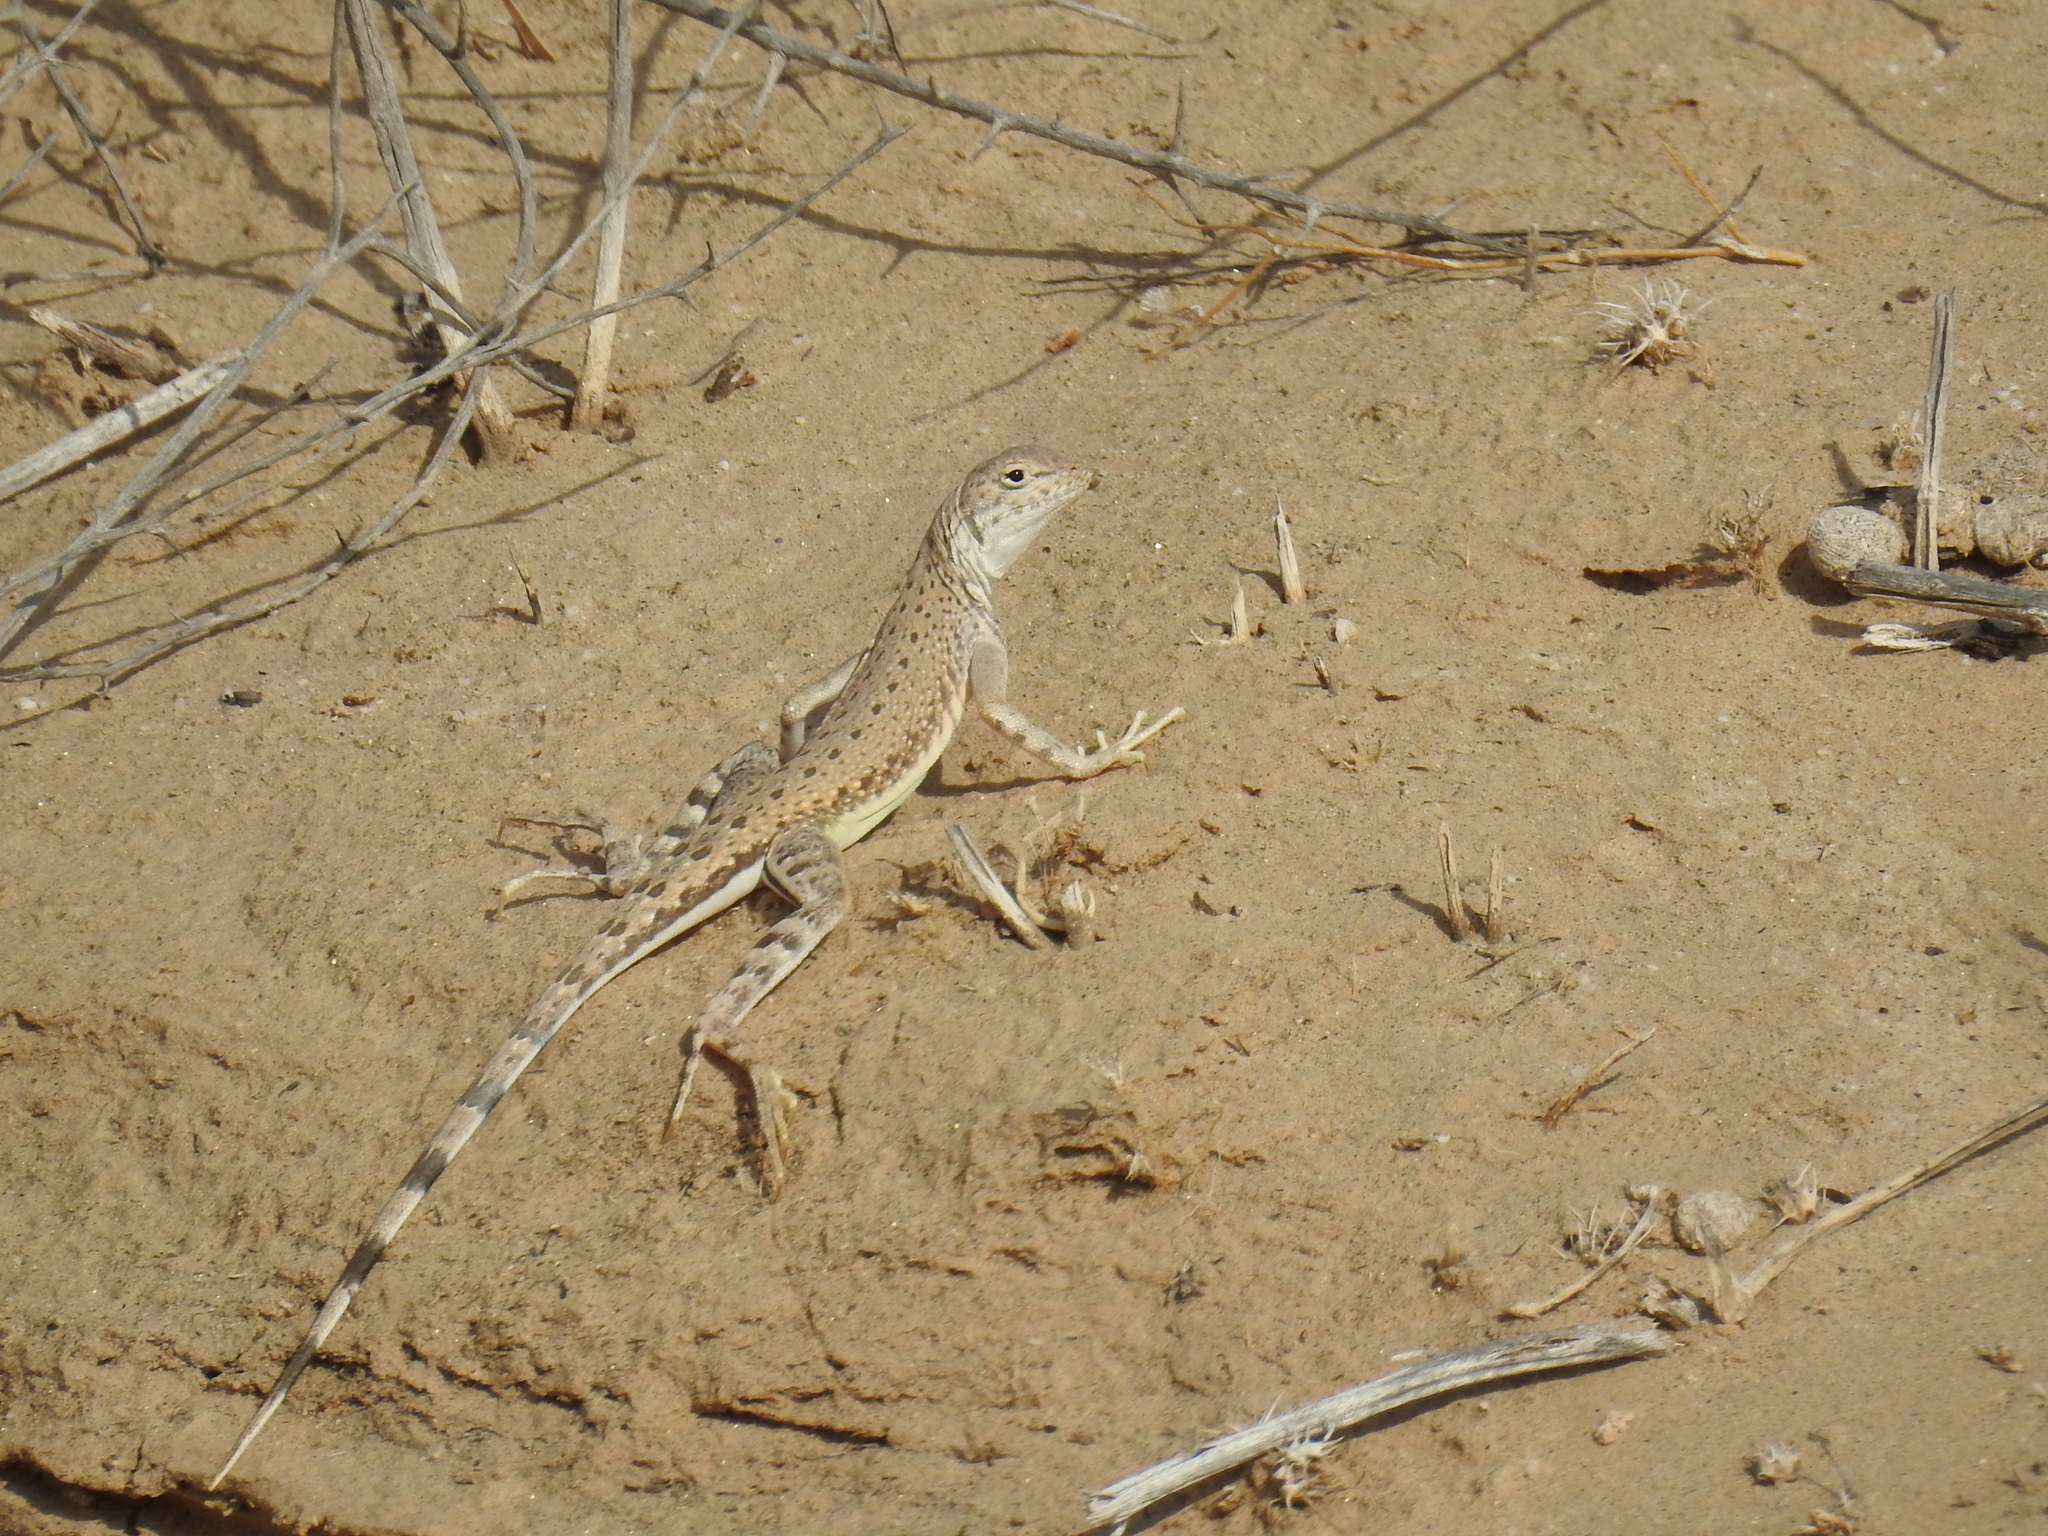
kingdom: Animalia
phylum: Chordata
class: Squamata
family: Phrynosomatidae
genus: Callisaurus
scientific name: Callisaurus draconoides
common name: Zebra-tailed lizard
